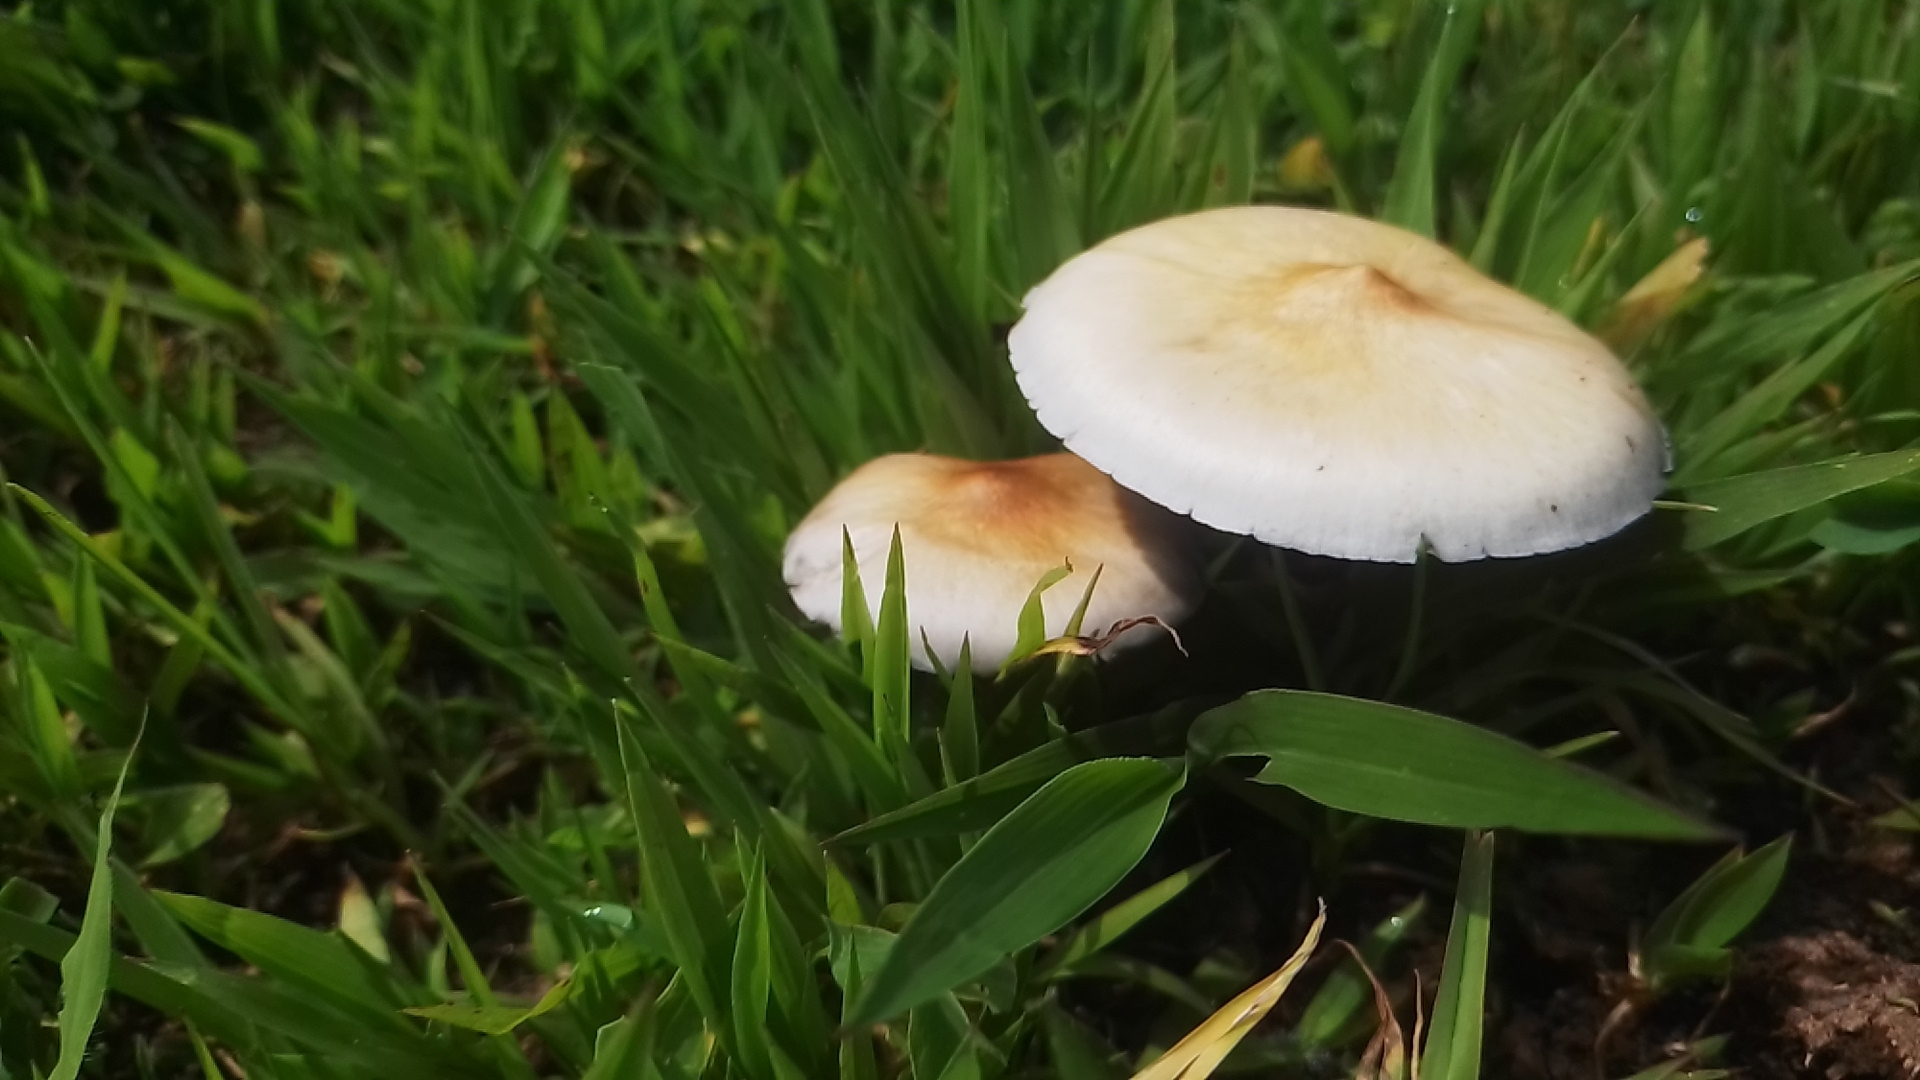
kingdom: Fungi
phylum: Basidiomycota
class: Agaricomycetes
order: Agaricales
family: Hymenogastraceae
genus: Psilocybe
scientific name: Psilocybe cubensis
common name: Golden brownie
